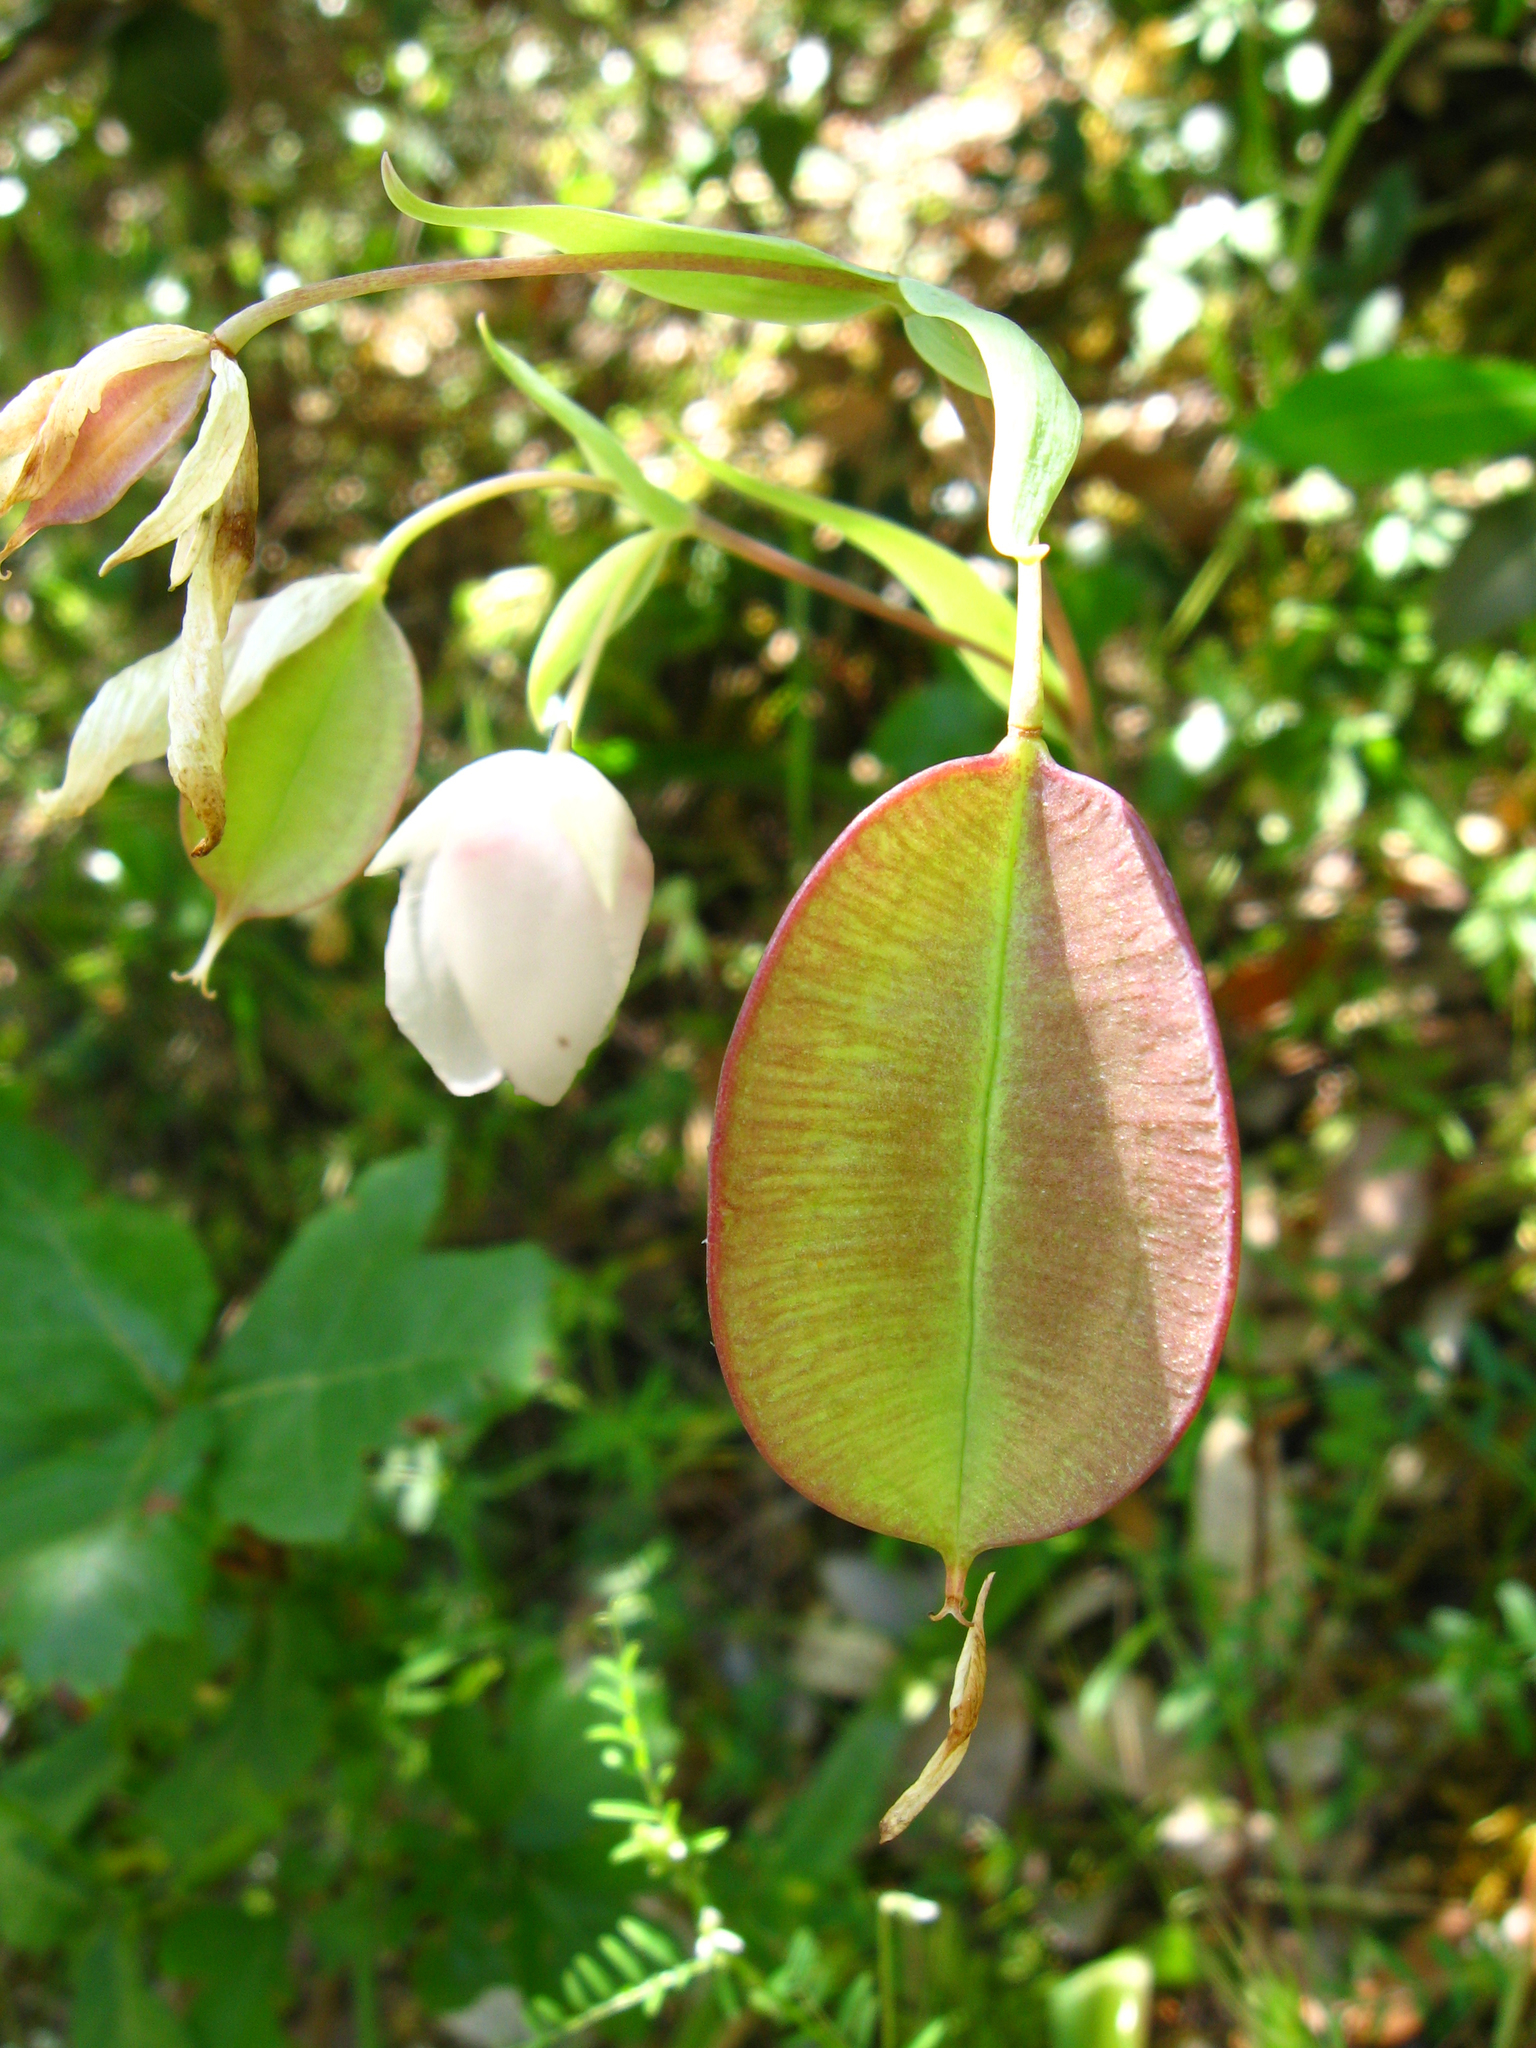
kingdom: Plantae
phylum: Tracheophyta
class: Liliopsida
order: Liliales
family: Liliaceae
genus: Calochortus
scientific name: Calochortus albus
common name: Fairy-lantern
